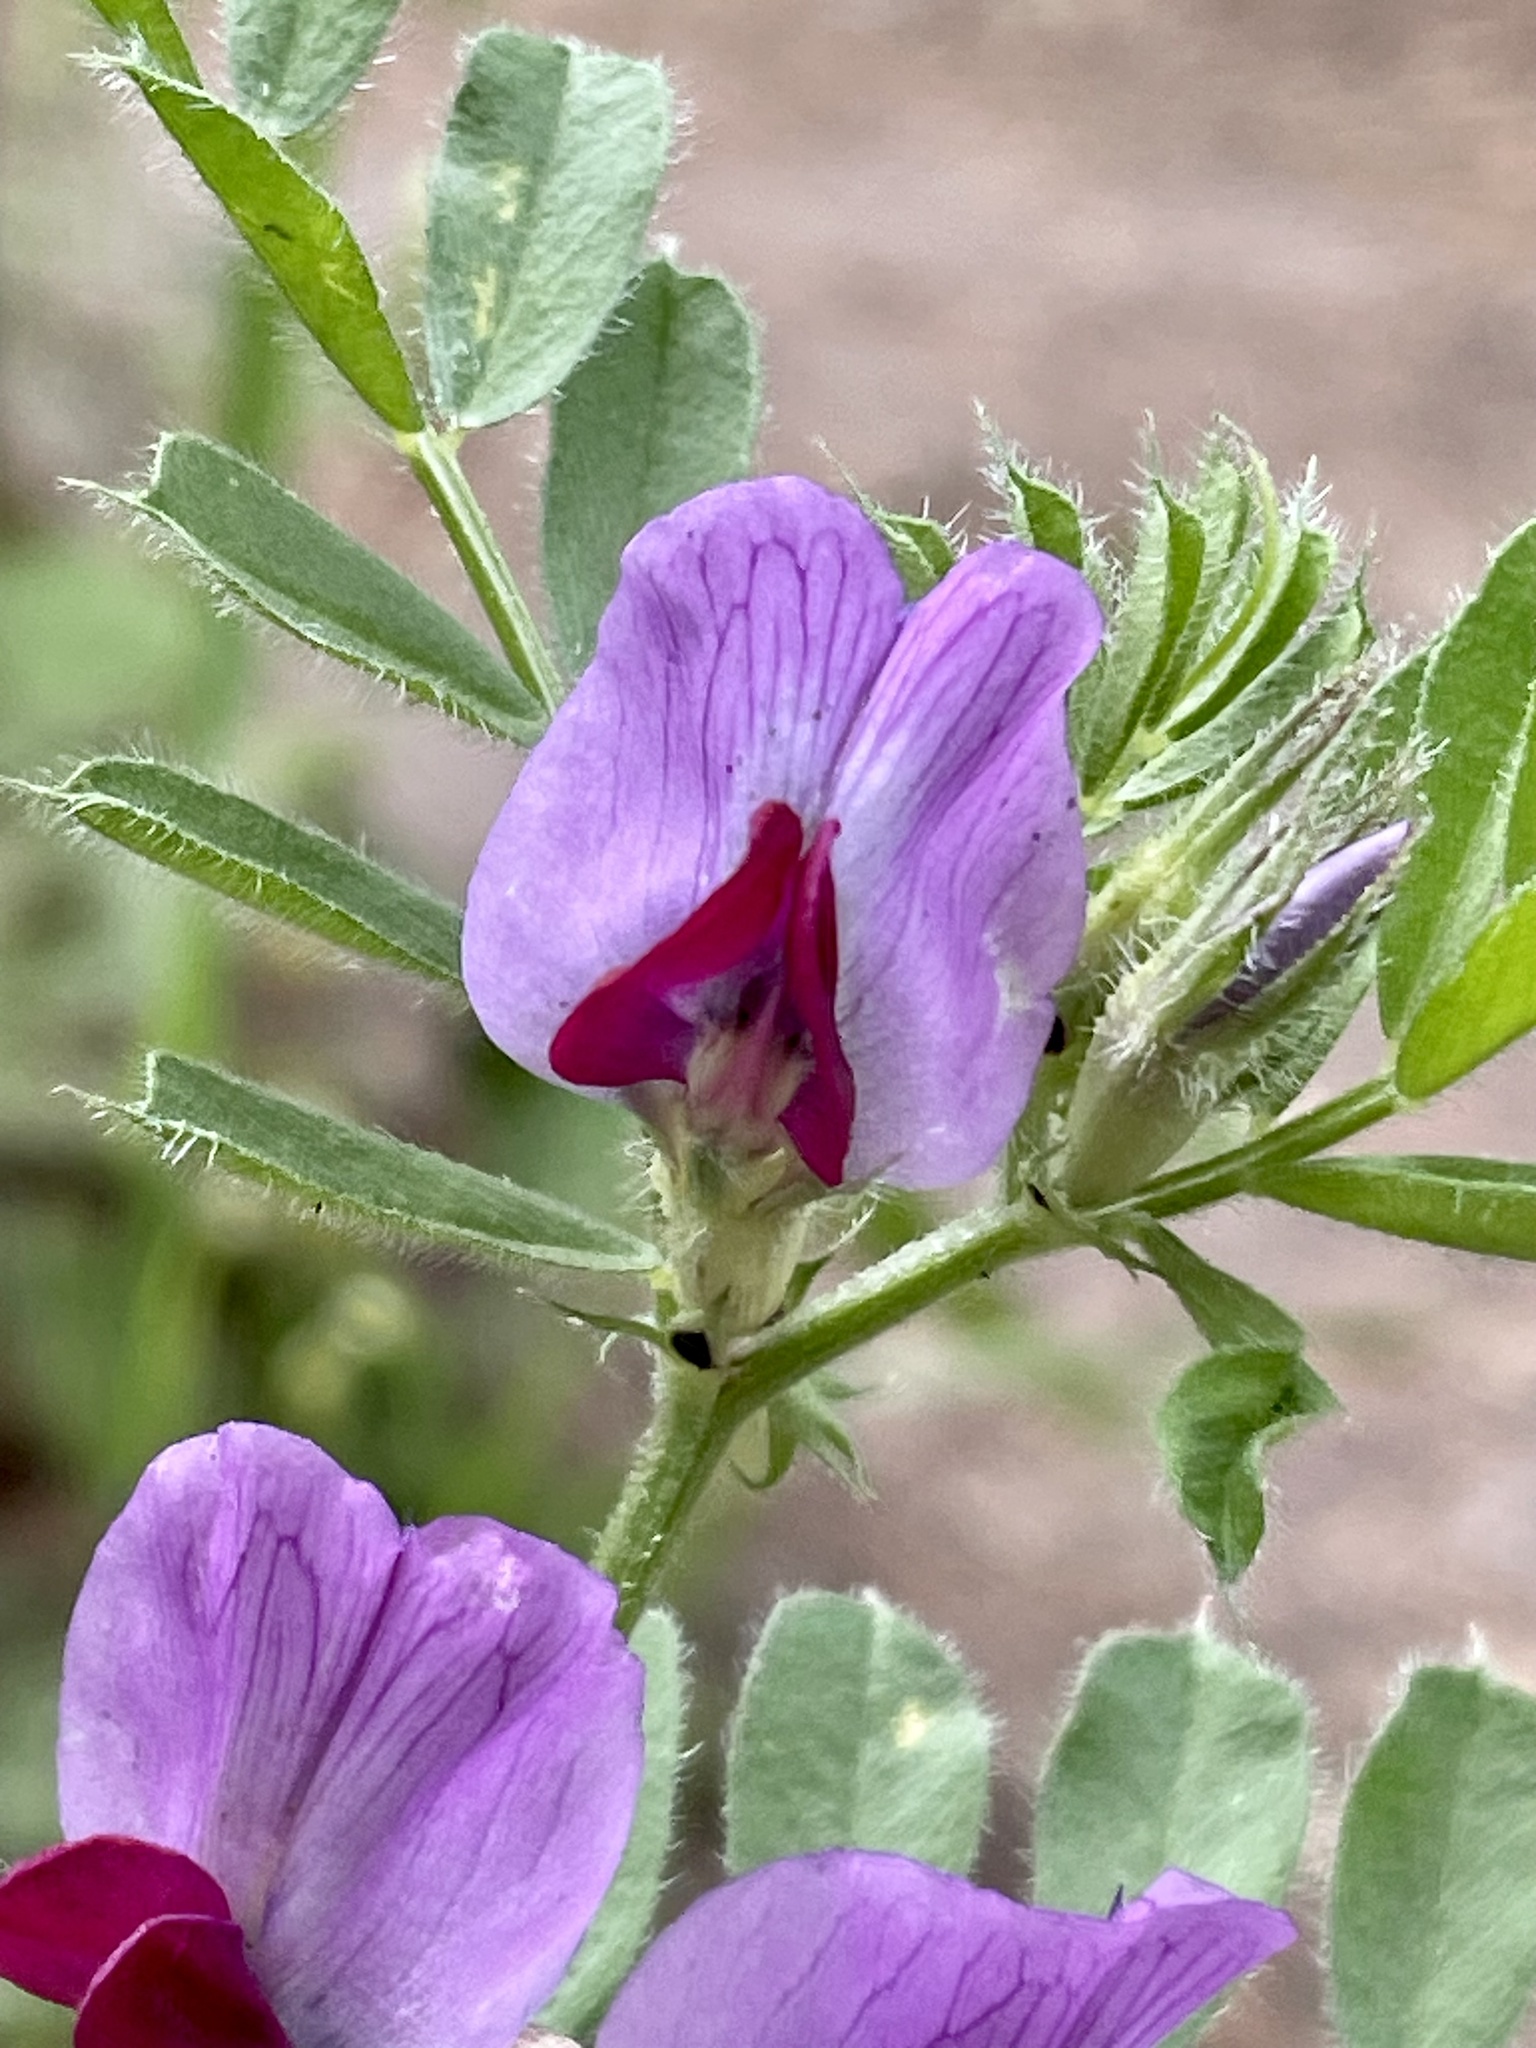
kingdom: Plantae
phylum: Tracheophyta
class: Magnoliopsida
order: Fabales
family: Fabaceae
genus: Vicia
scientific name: Vicia sativa
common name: Garden vetch
